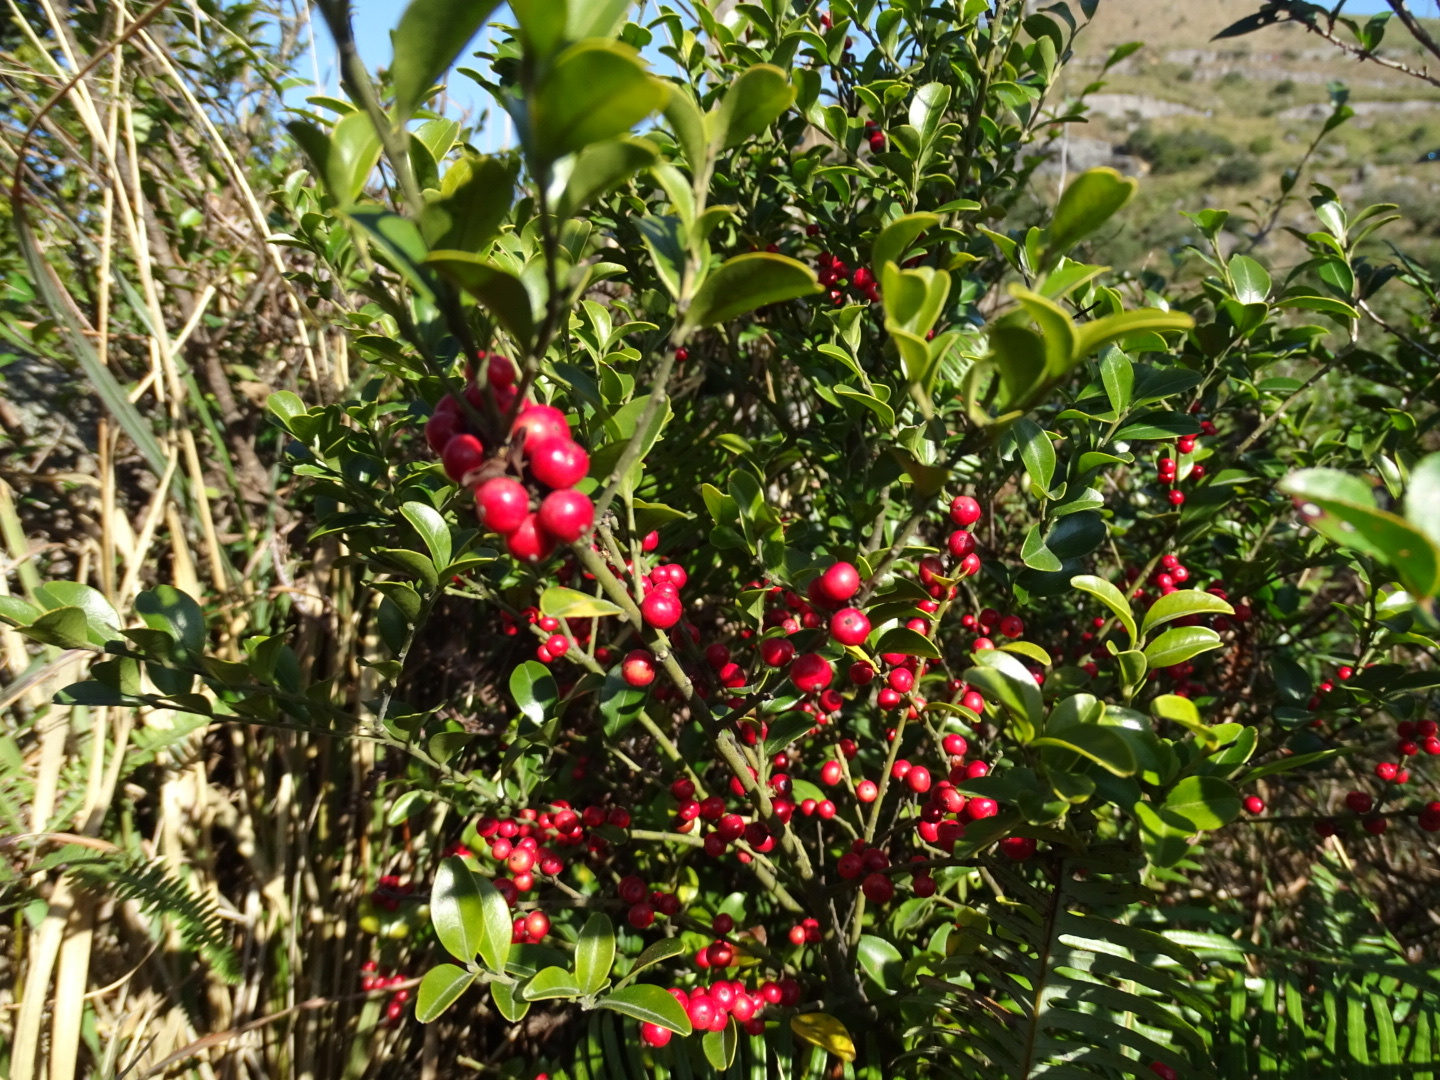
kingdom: Plantae
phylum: Tracheophyta
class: Magnoliopsida
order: Aquifoliales
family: Aquifoliaceae
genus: Ilex
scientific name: Ilex rotunda
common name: Kurogane holly
